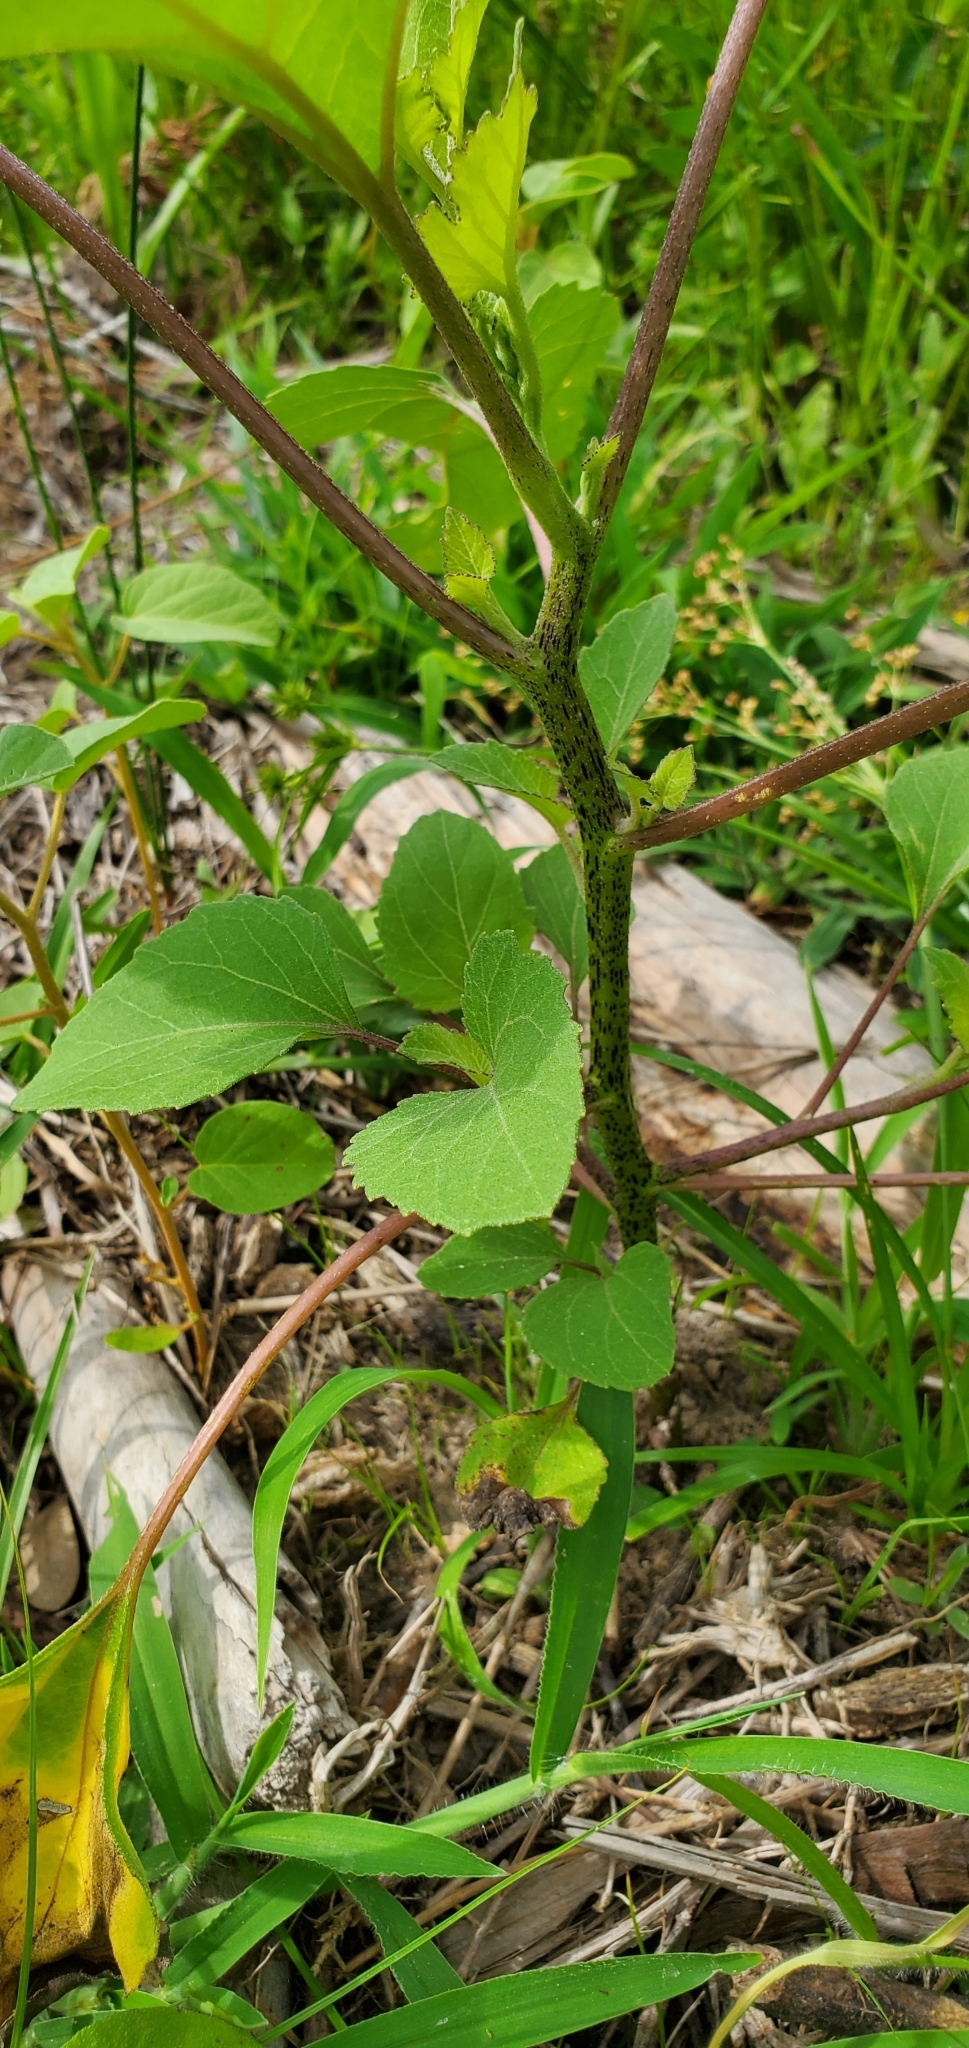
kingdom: Plantae
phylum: Tracheophyta
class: Magnoliopsida
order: Asterales
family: Asteraceae
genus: Xanthium
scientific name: Xanthium strumarium
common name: Rough cocklebur
